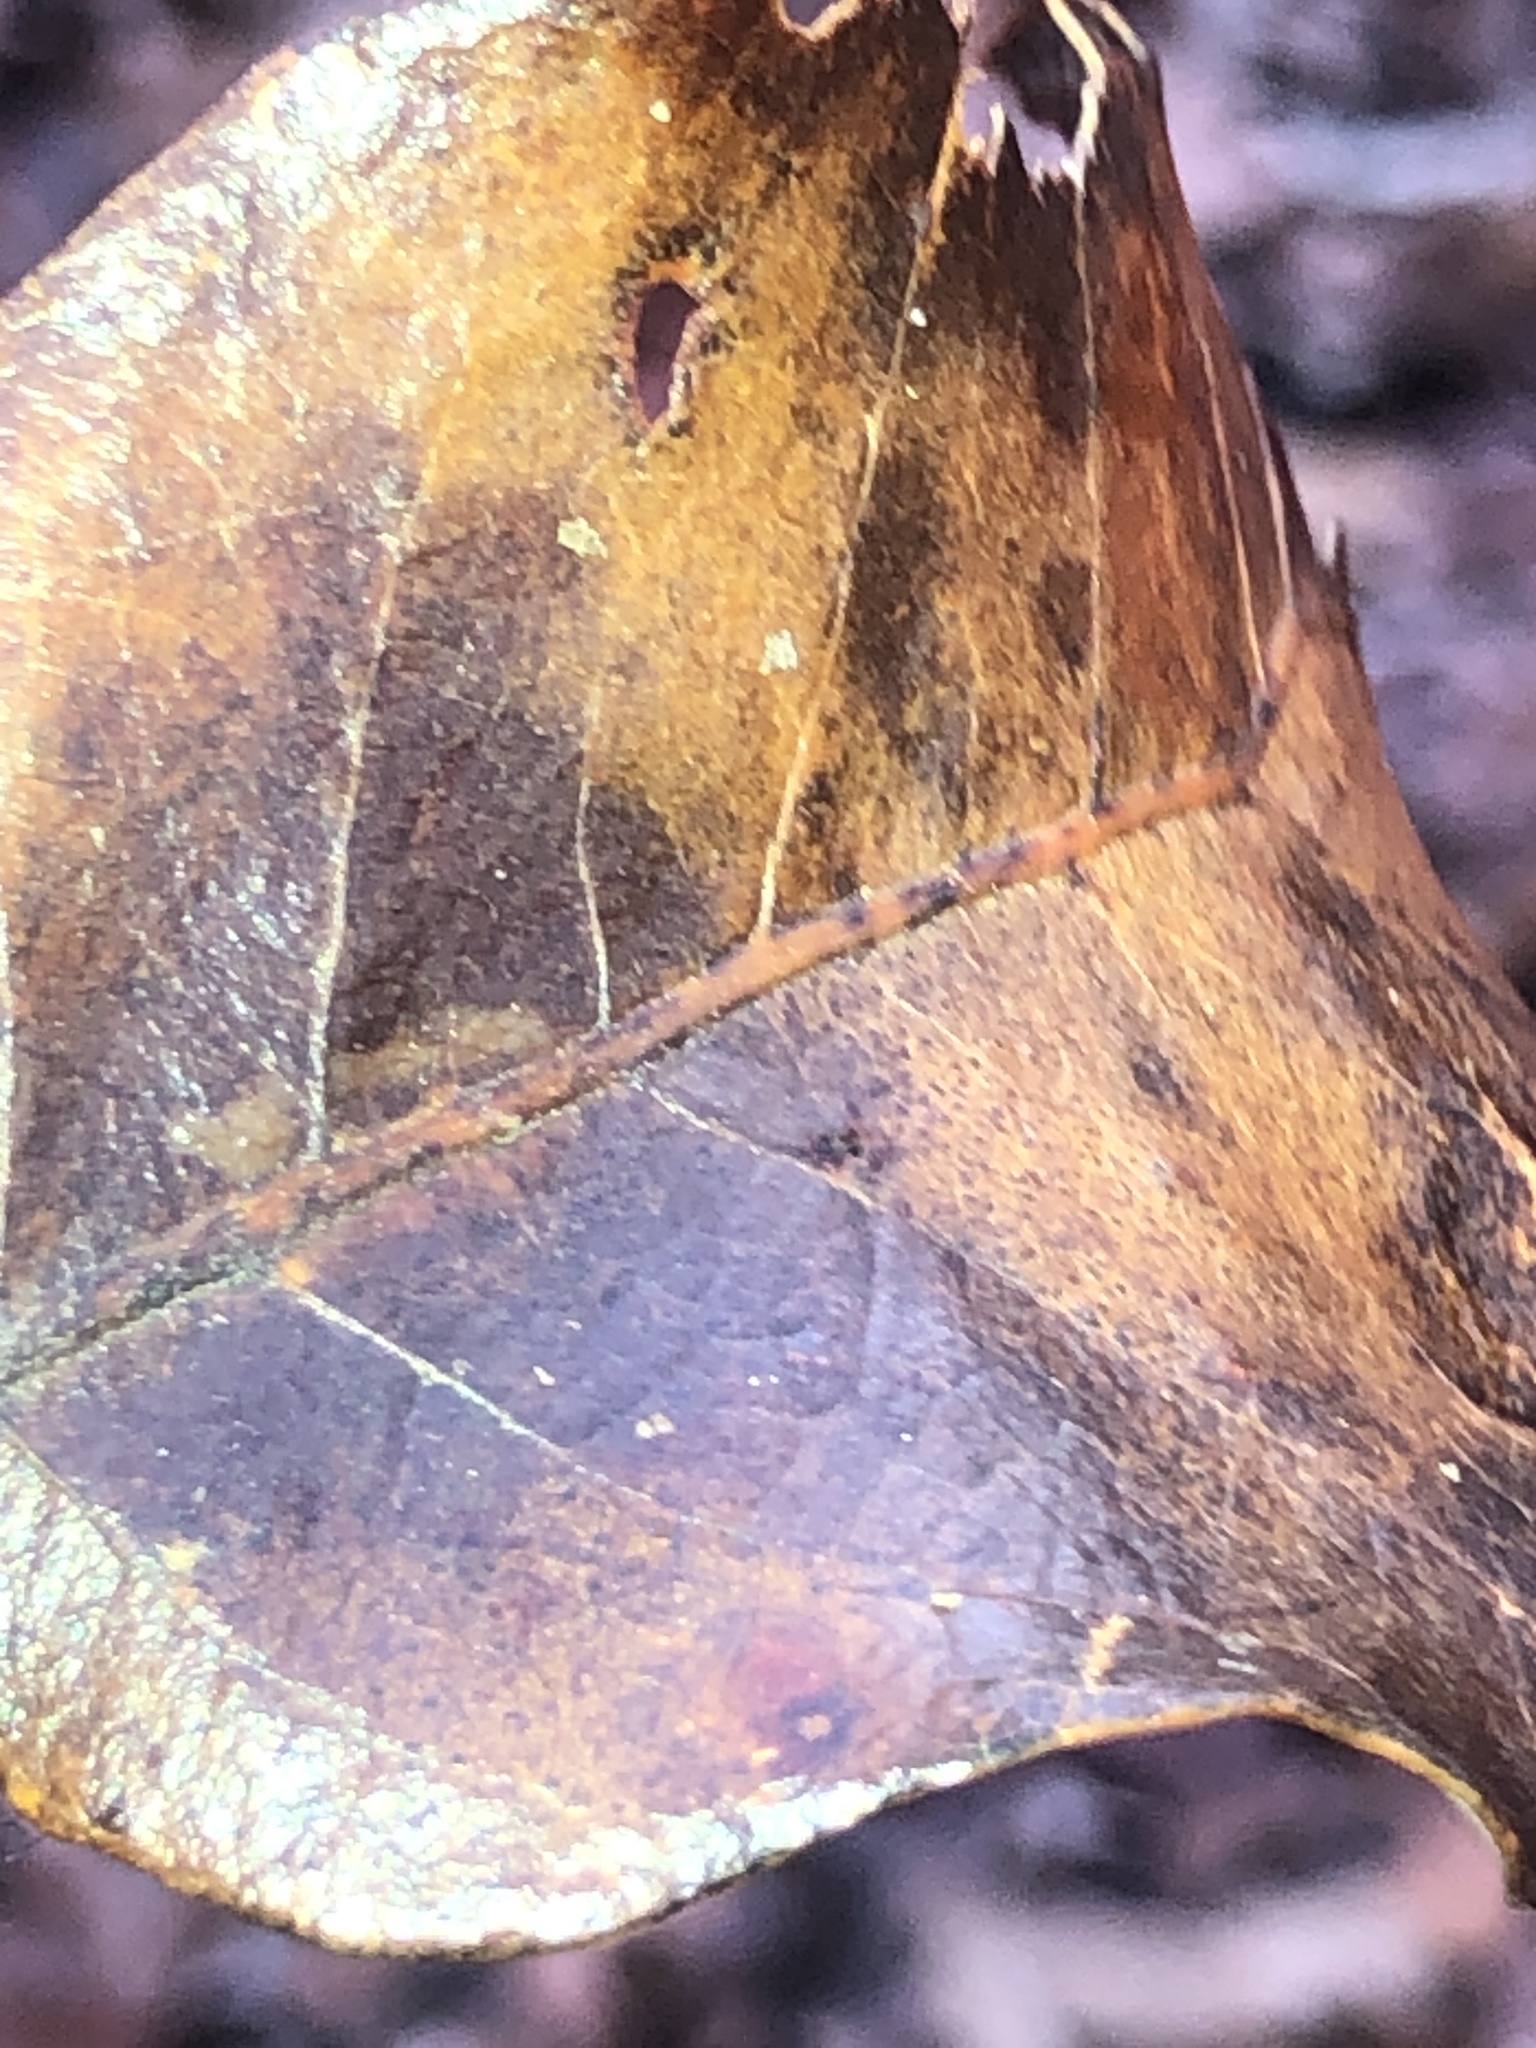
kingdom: Animalia
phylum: Arthropoda
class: Insecta
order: Hymenoptera
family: Cynipidae
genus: Andricus
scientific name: Andricus Druon pattoni
